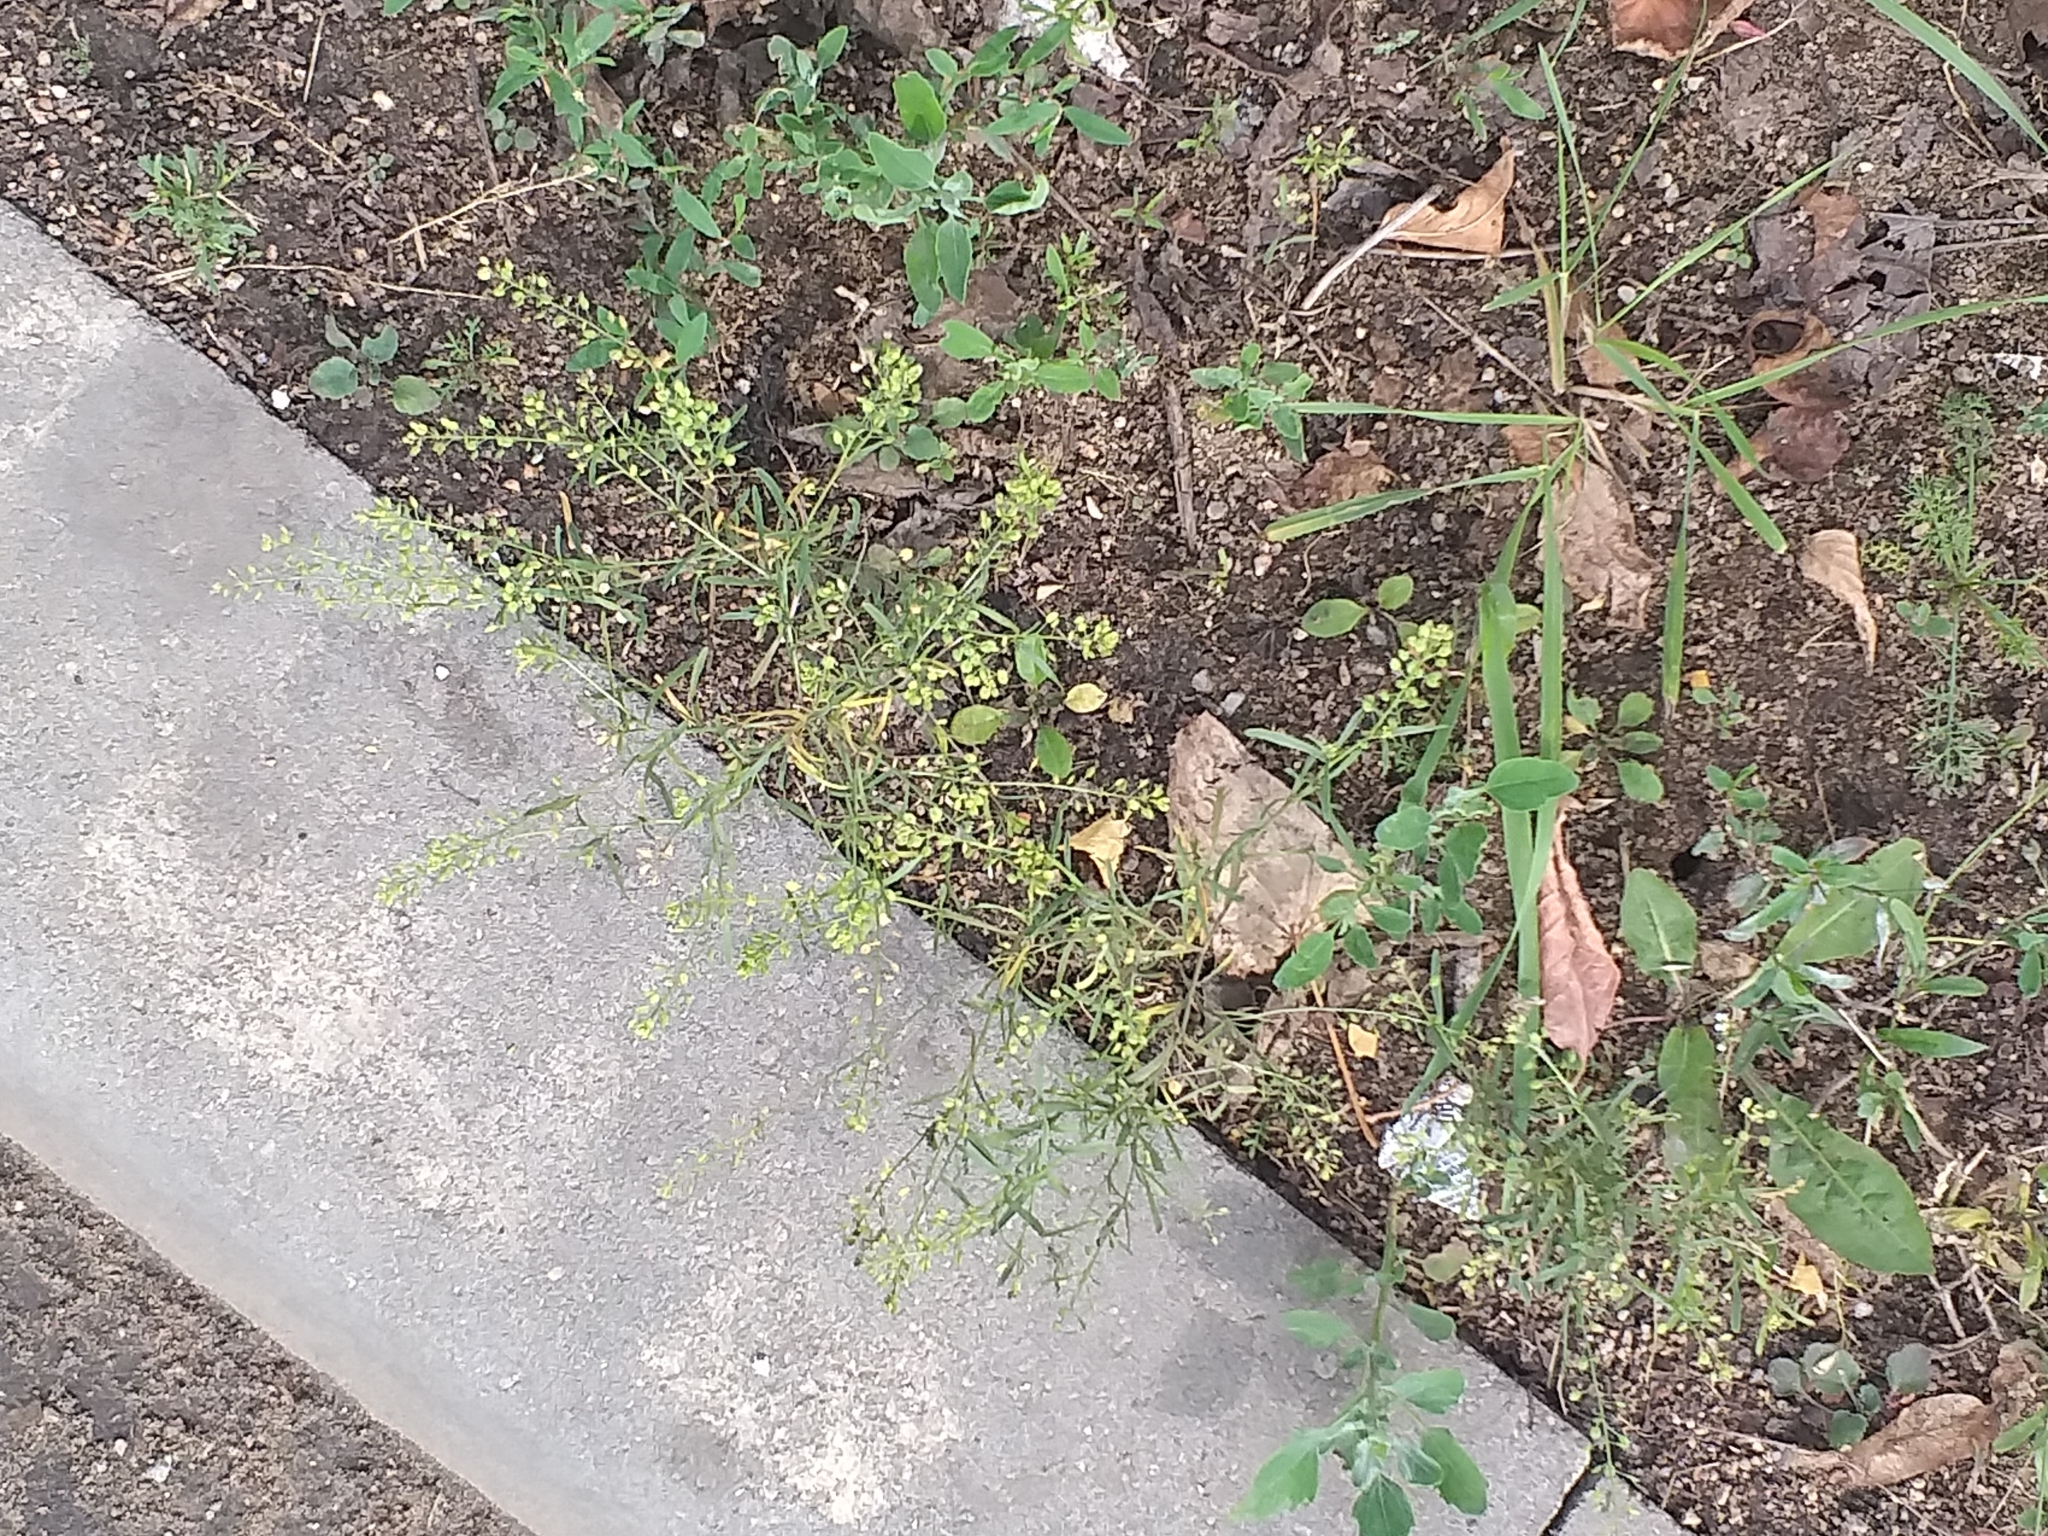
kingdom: Plantae
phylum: Tracheophyta
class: Magnoliopsida
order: Brassicales
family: Brassicaceae
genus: Lepidium
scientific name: Lepidium ruderale
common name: Narrow-leaved pepperwort
